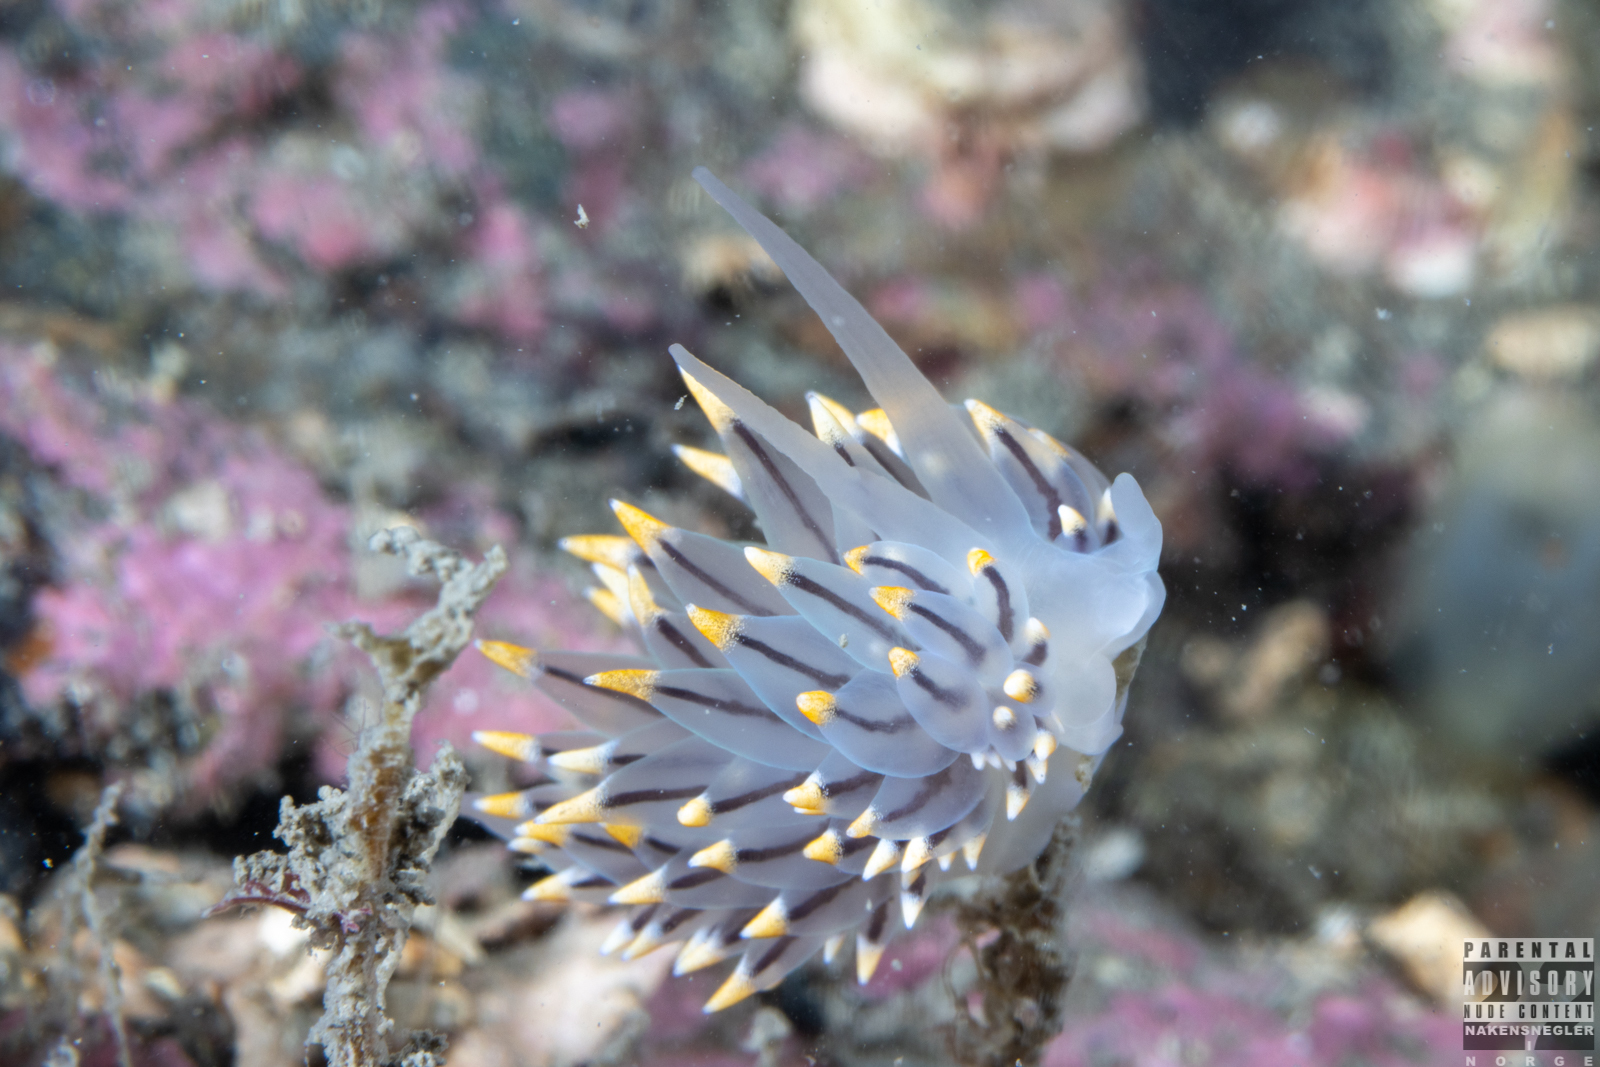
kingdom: Animalia
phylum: Mollusca
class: Gastropoda
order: Nudibranchia
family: Eubranchidae
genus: Eubranchus
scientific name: Eubranchus tricolor
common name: Painted balloon aeolis
